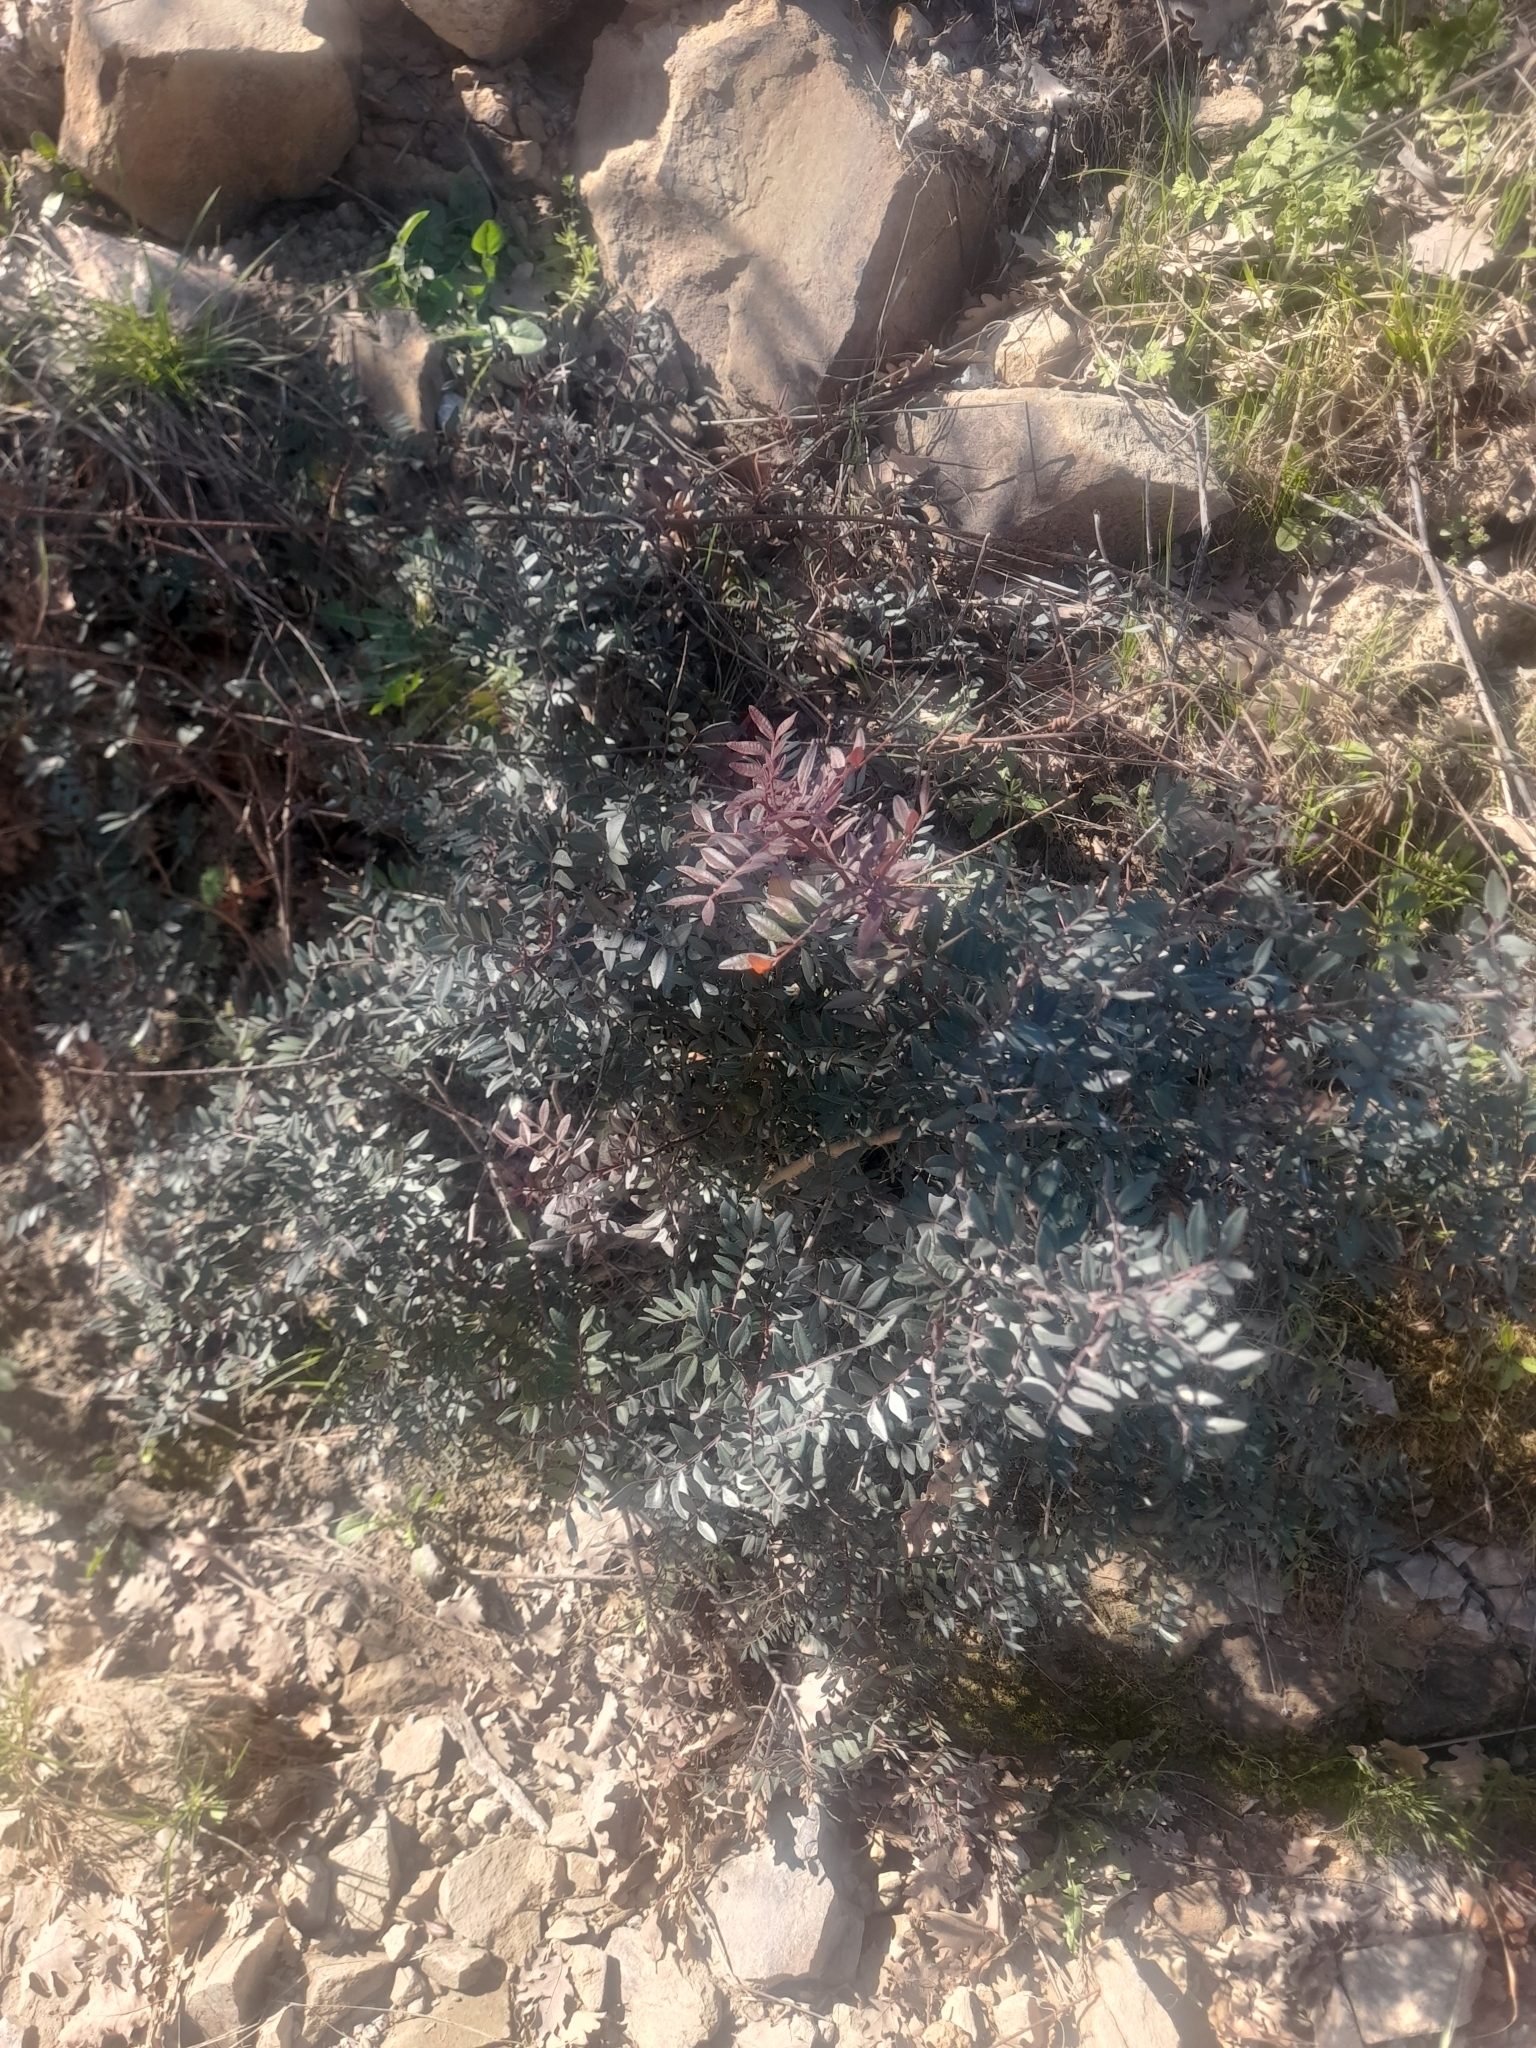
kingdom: Plantae
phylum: Tracheophyta
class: Magnoliopsida
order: Sapindales
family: Anacardiaceae
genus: Pistacia
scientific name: Pistacia lentiscus
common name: Lentisk
